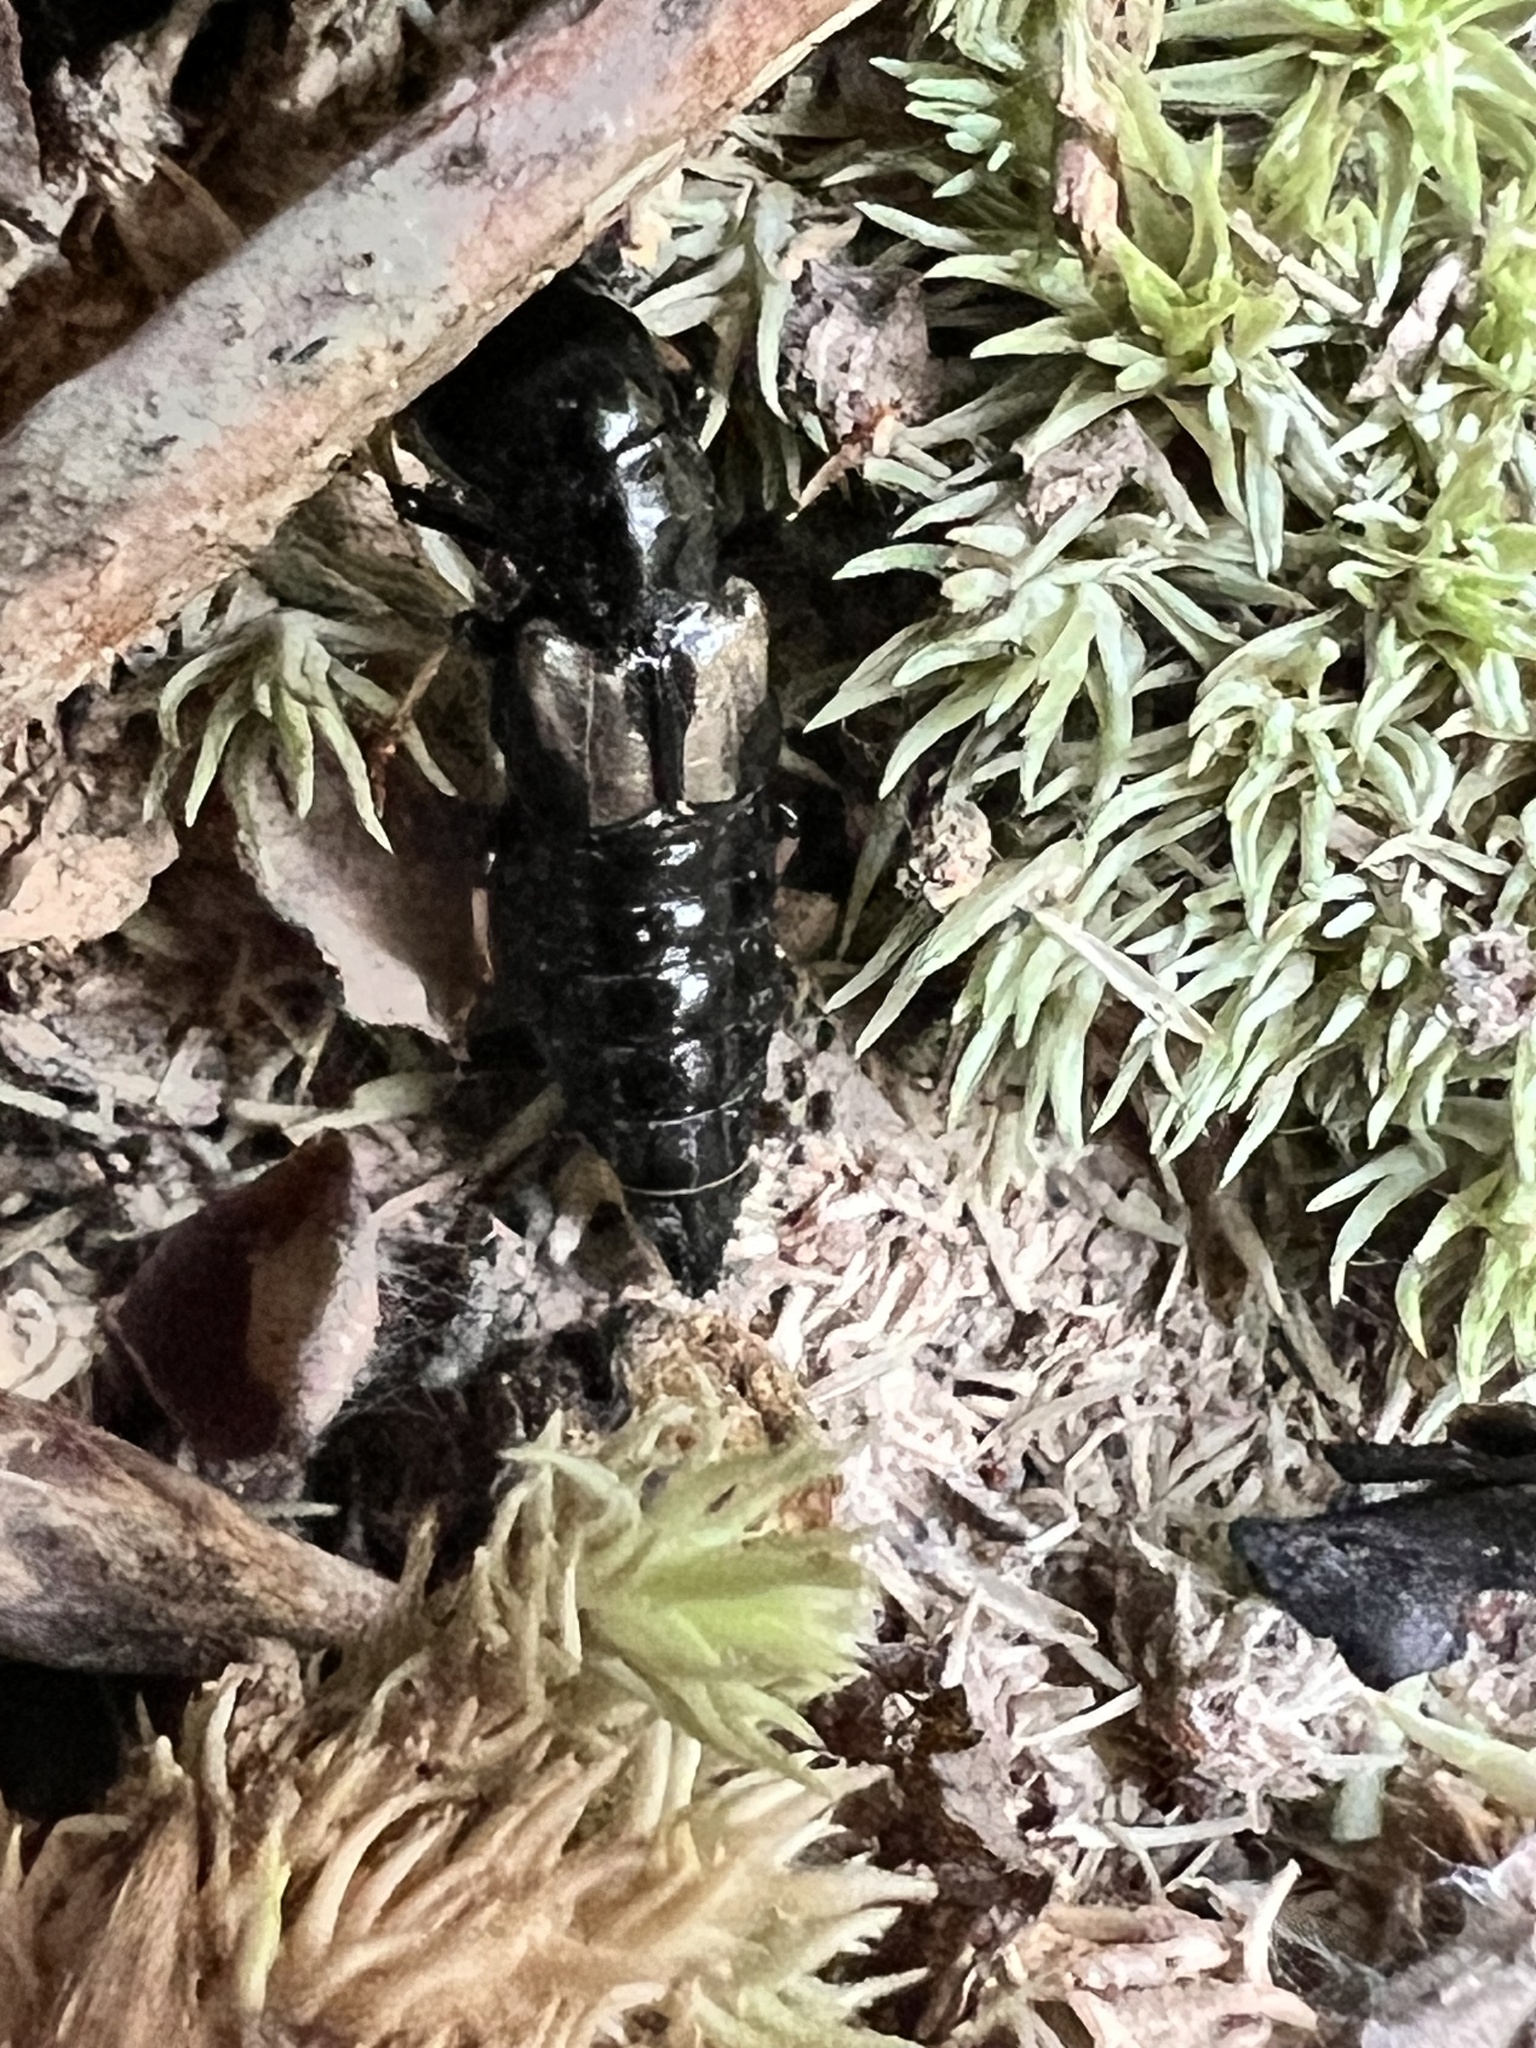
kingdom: Animalia
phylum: Arthropoda
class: Insecta
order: Coleoptera
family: Staphylinidae
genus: Oxyporus
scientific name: Oxyporus femoralis
